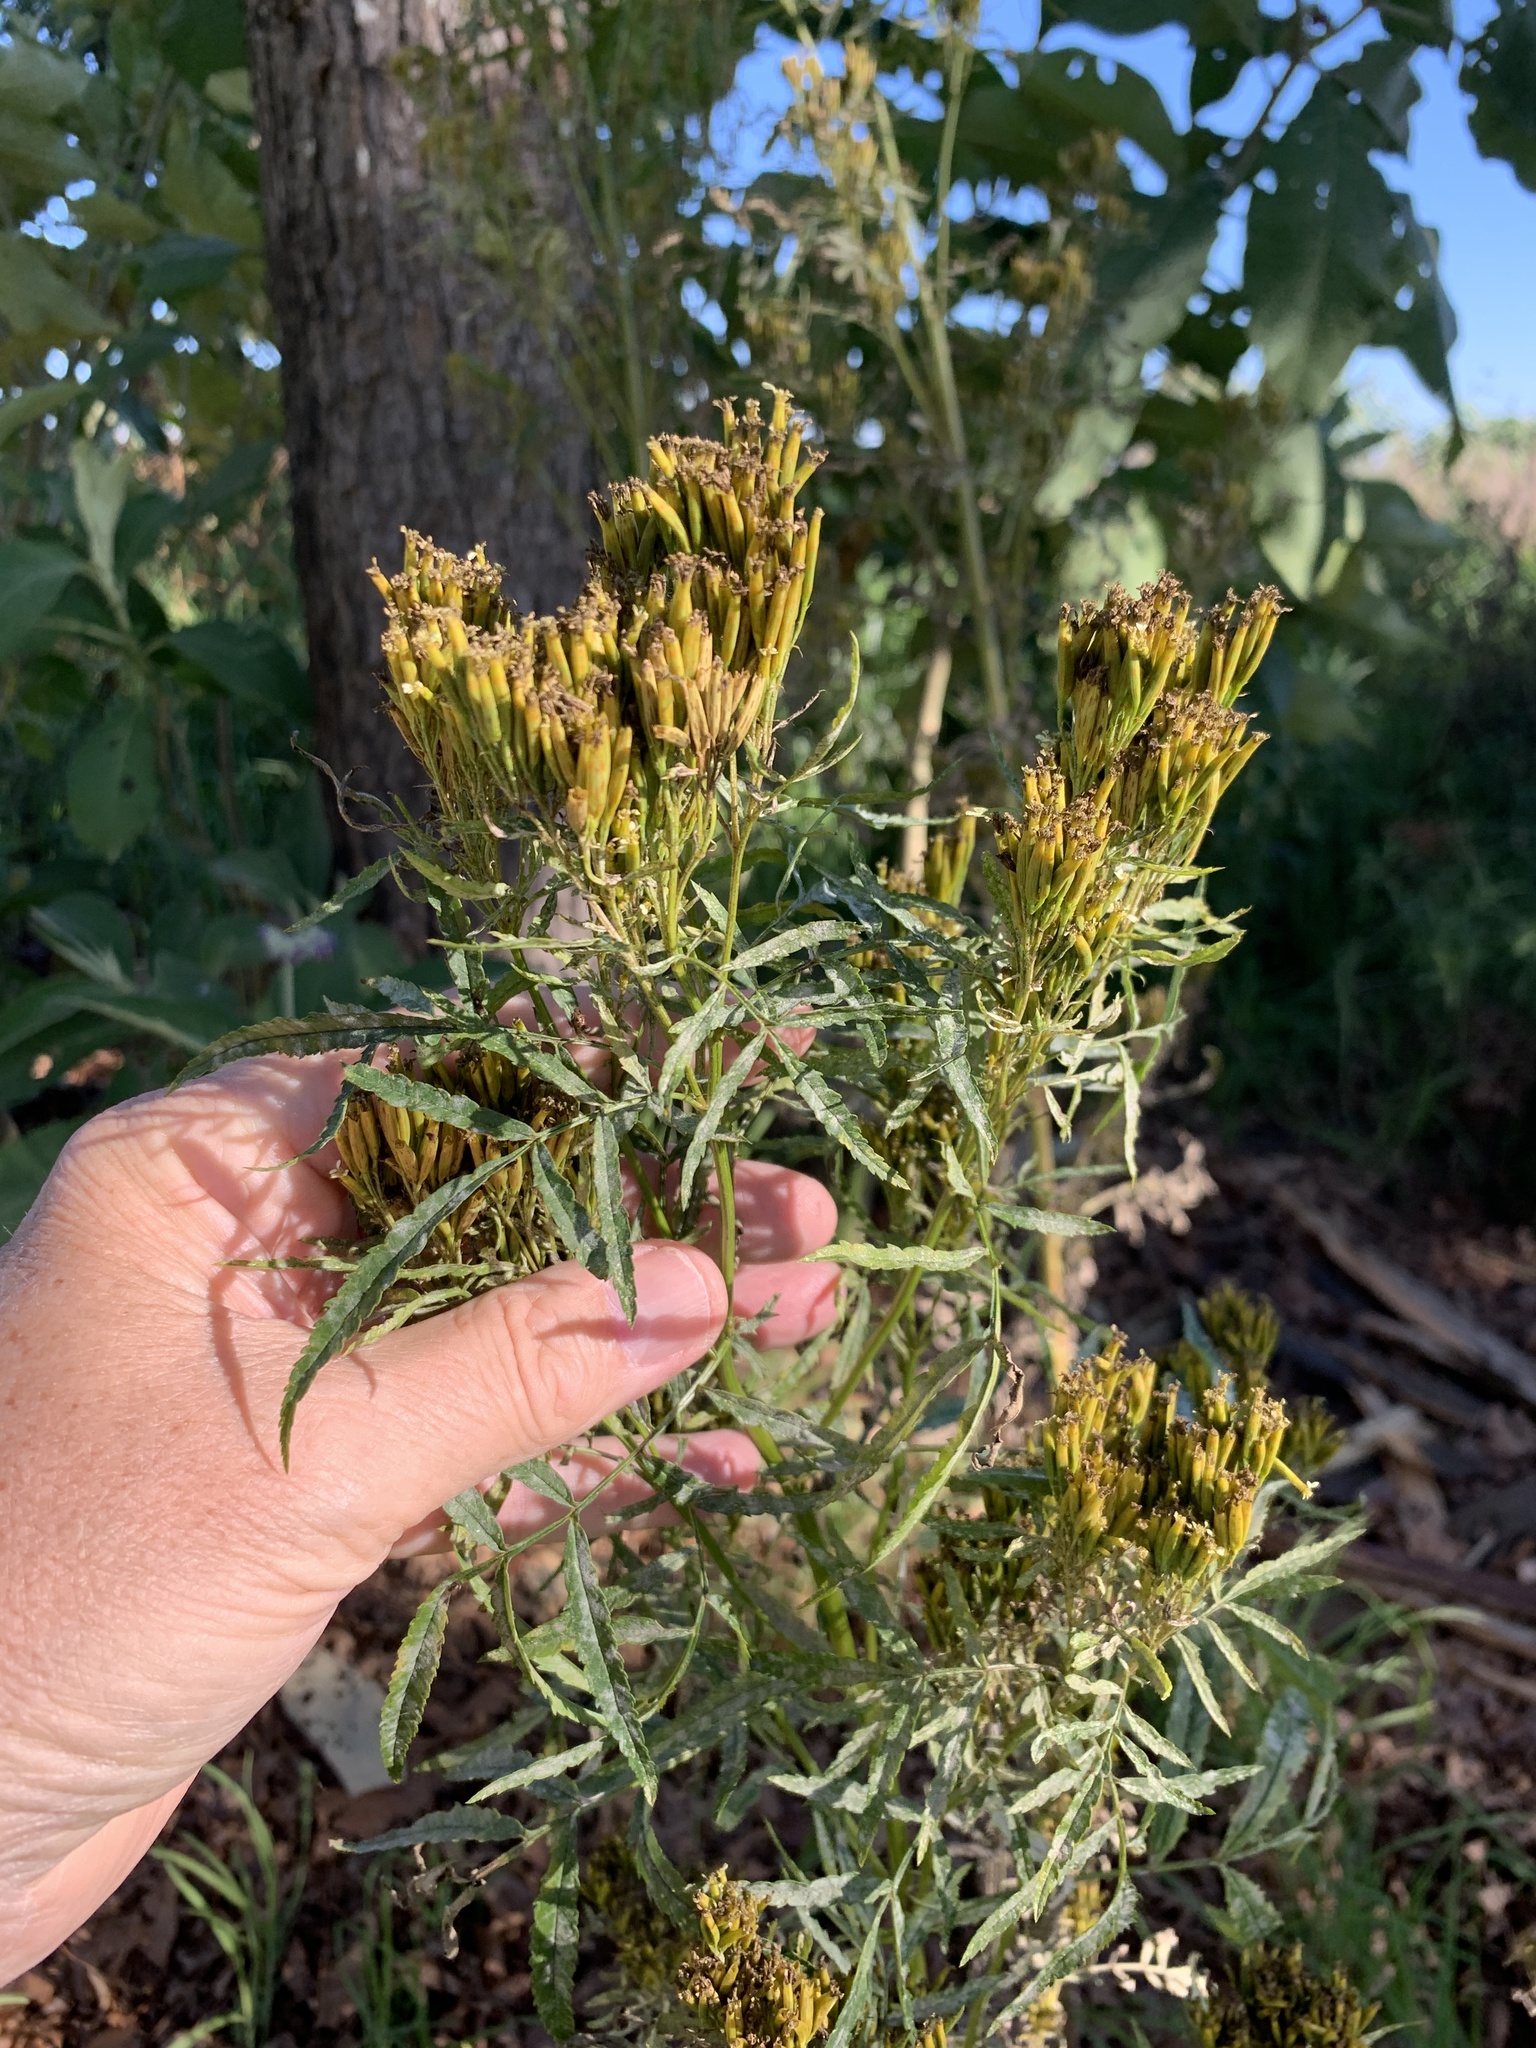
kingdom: Plantae
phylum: Tracheophyta
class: Magnoliopsida
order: Asterales
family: Asteraceae
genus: Tagetes
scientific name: Tagetes minuta
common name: Muster john henry
